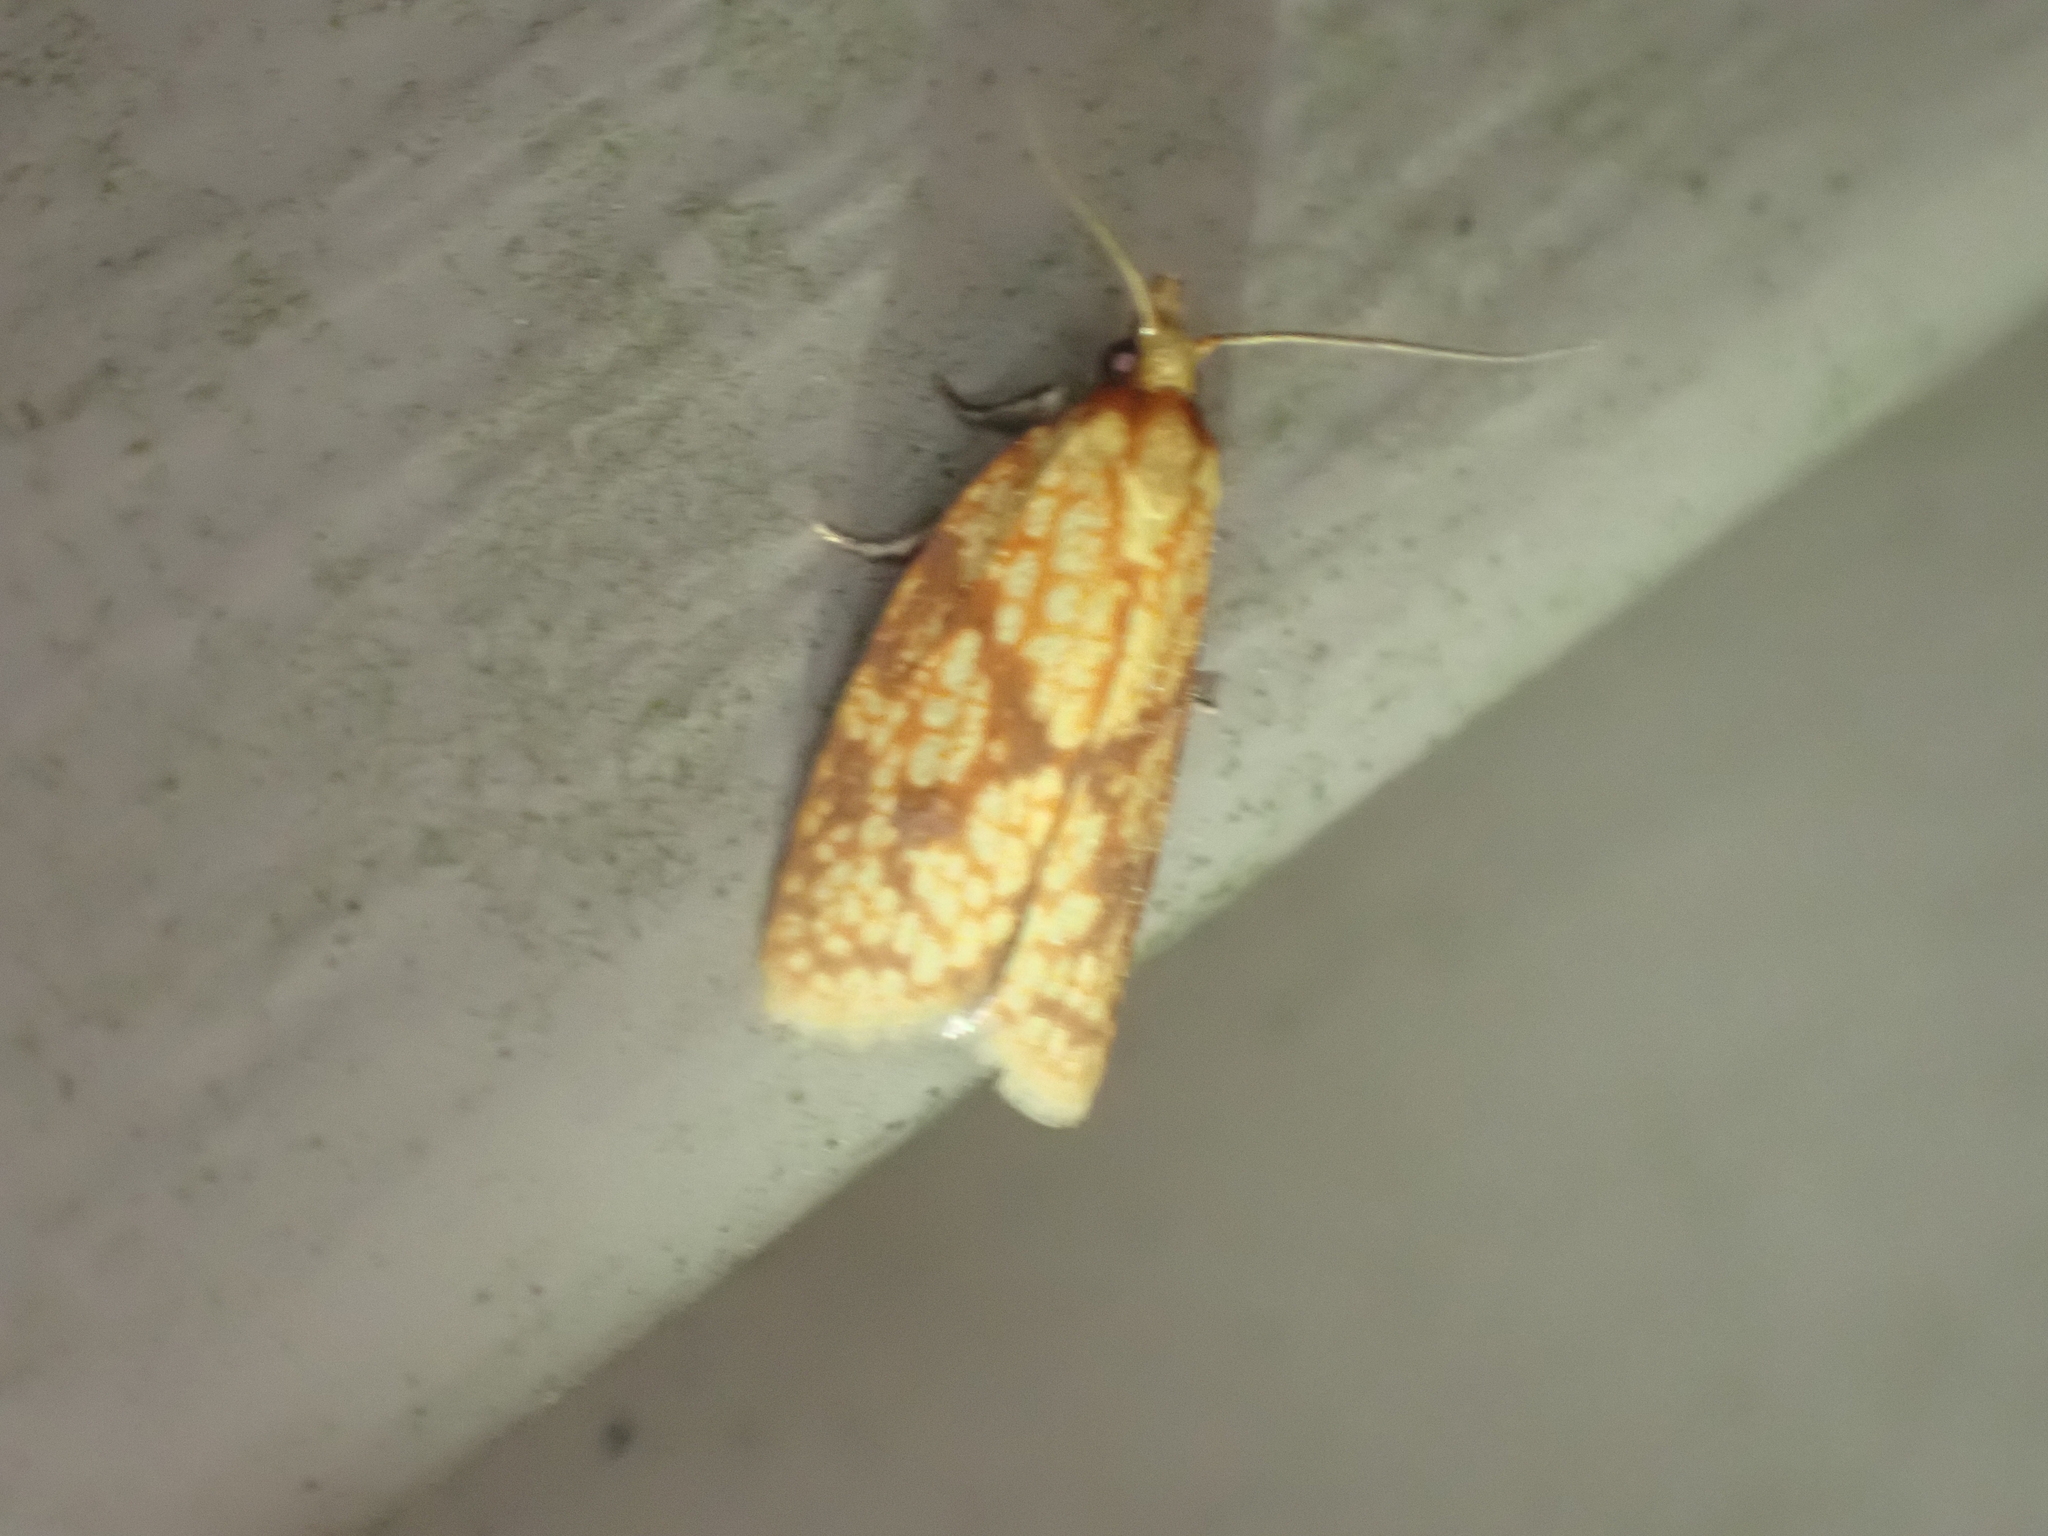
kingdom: Animalia
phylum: Arthropoda
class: Insecta
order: Lepidoptera
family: Tortricidae
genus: Sparganothis
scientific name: Sparganothis sulfureana
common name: Sparganothis fruitworm moth
